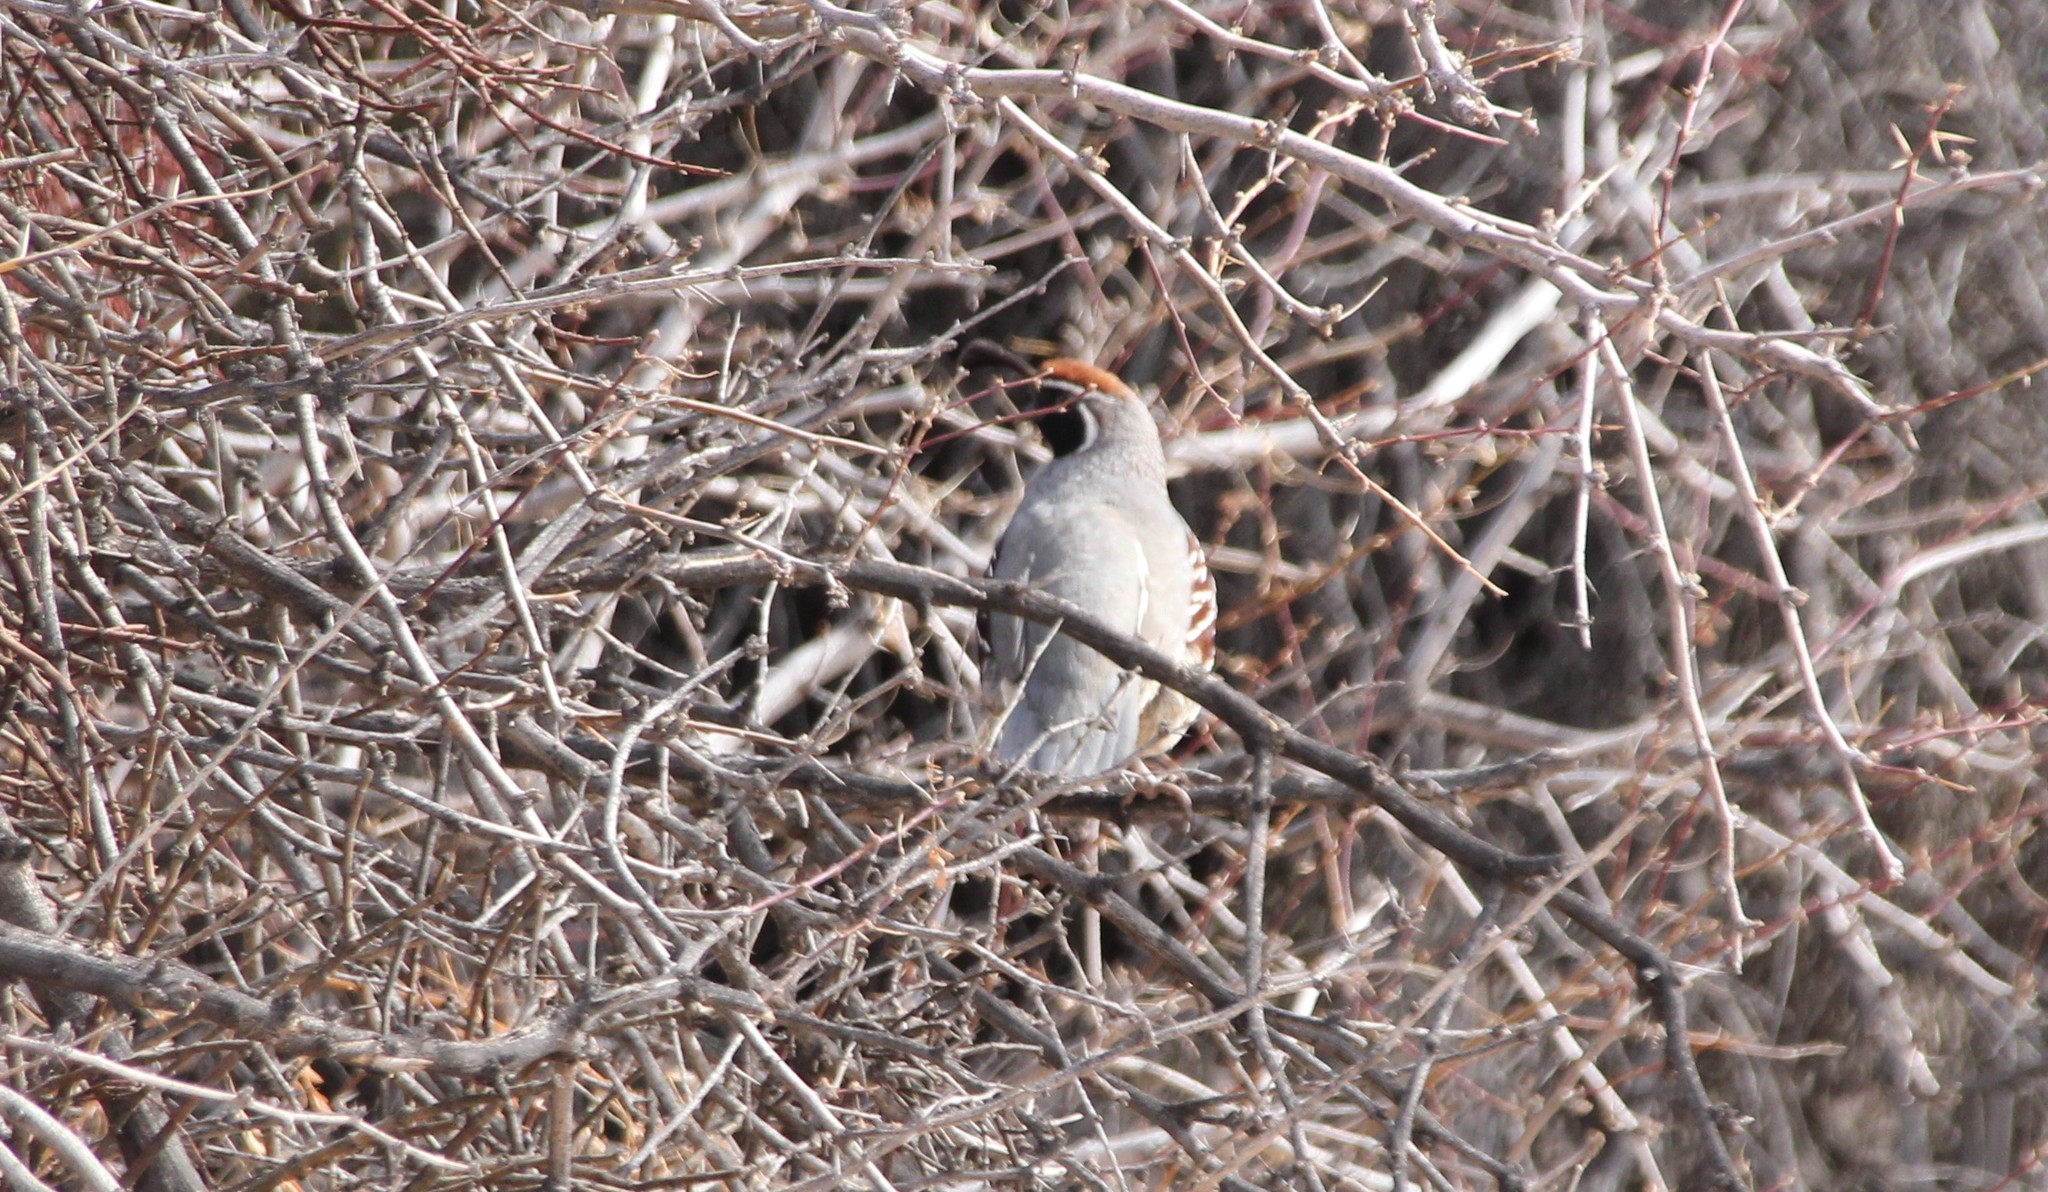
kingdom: Animalia
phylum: Chordata
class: Aves
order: Galliformes
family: Odontophoridae
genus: Callipepla
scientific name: Callipepla gambelii
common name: Gambel's quail
